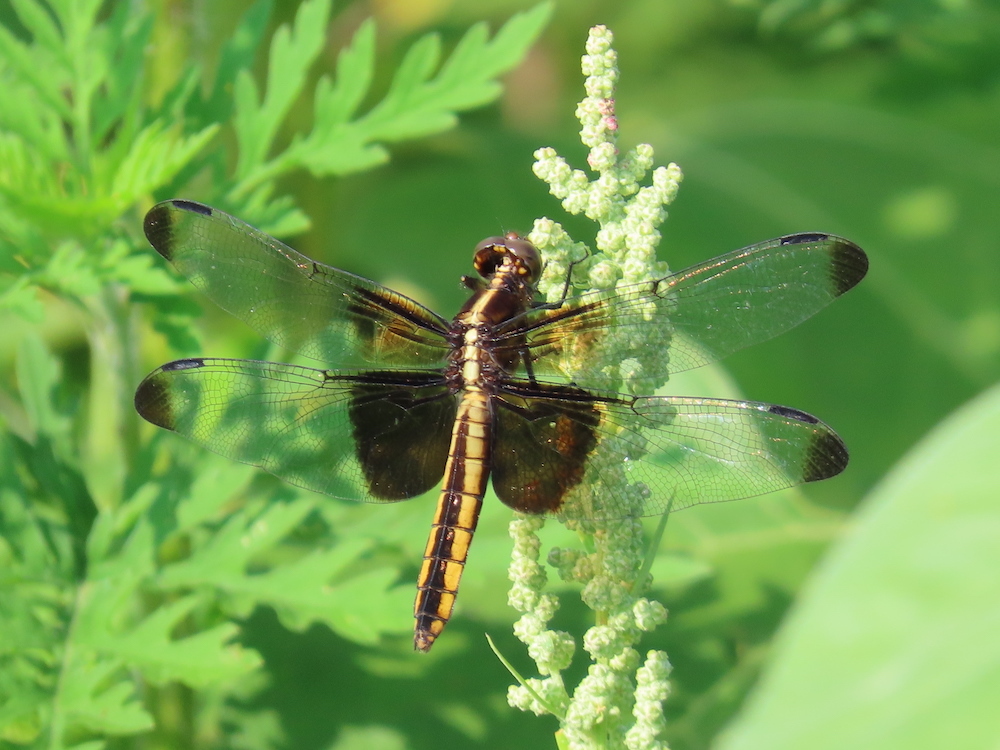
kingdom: Animalia
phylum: Arthropoda
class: Insecta
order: Odonata
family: Libellulidae
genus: Libellula
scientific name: Libellula luctuosa
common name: Widow skimmer
